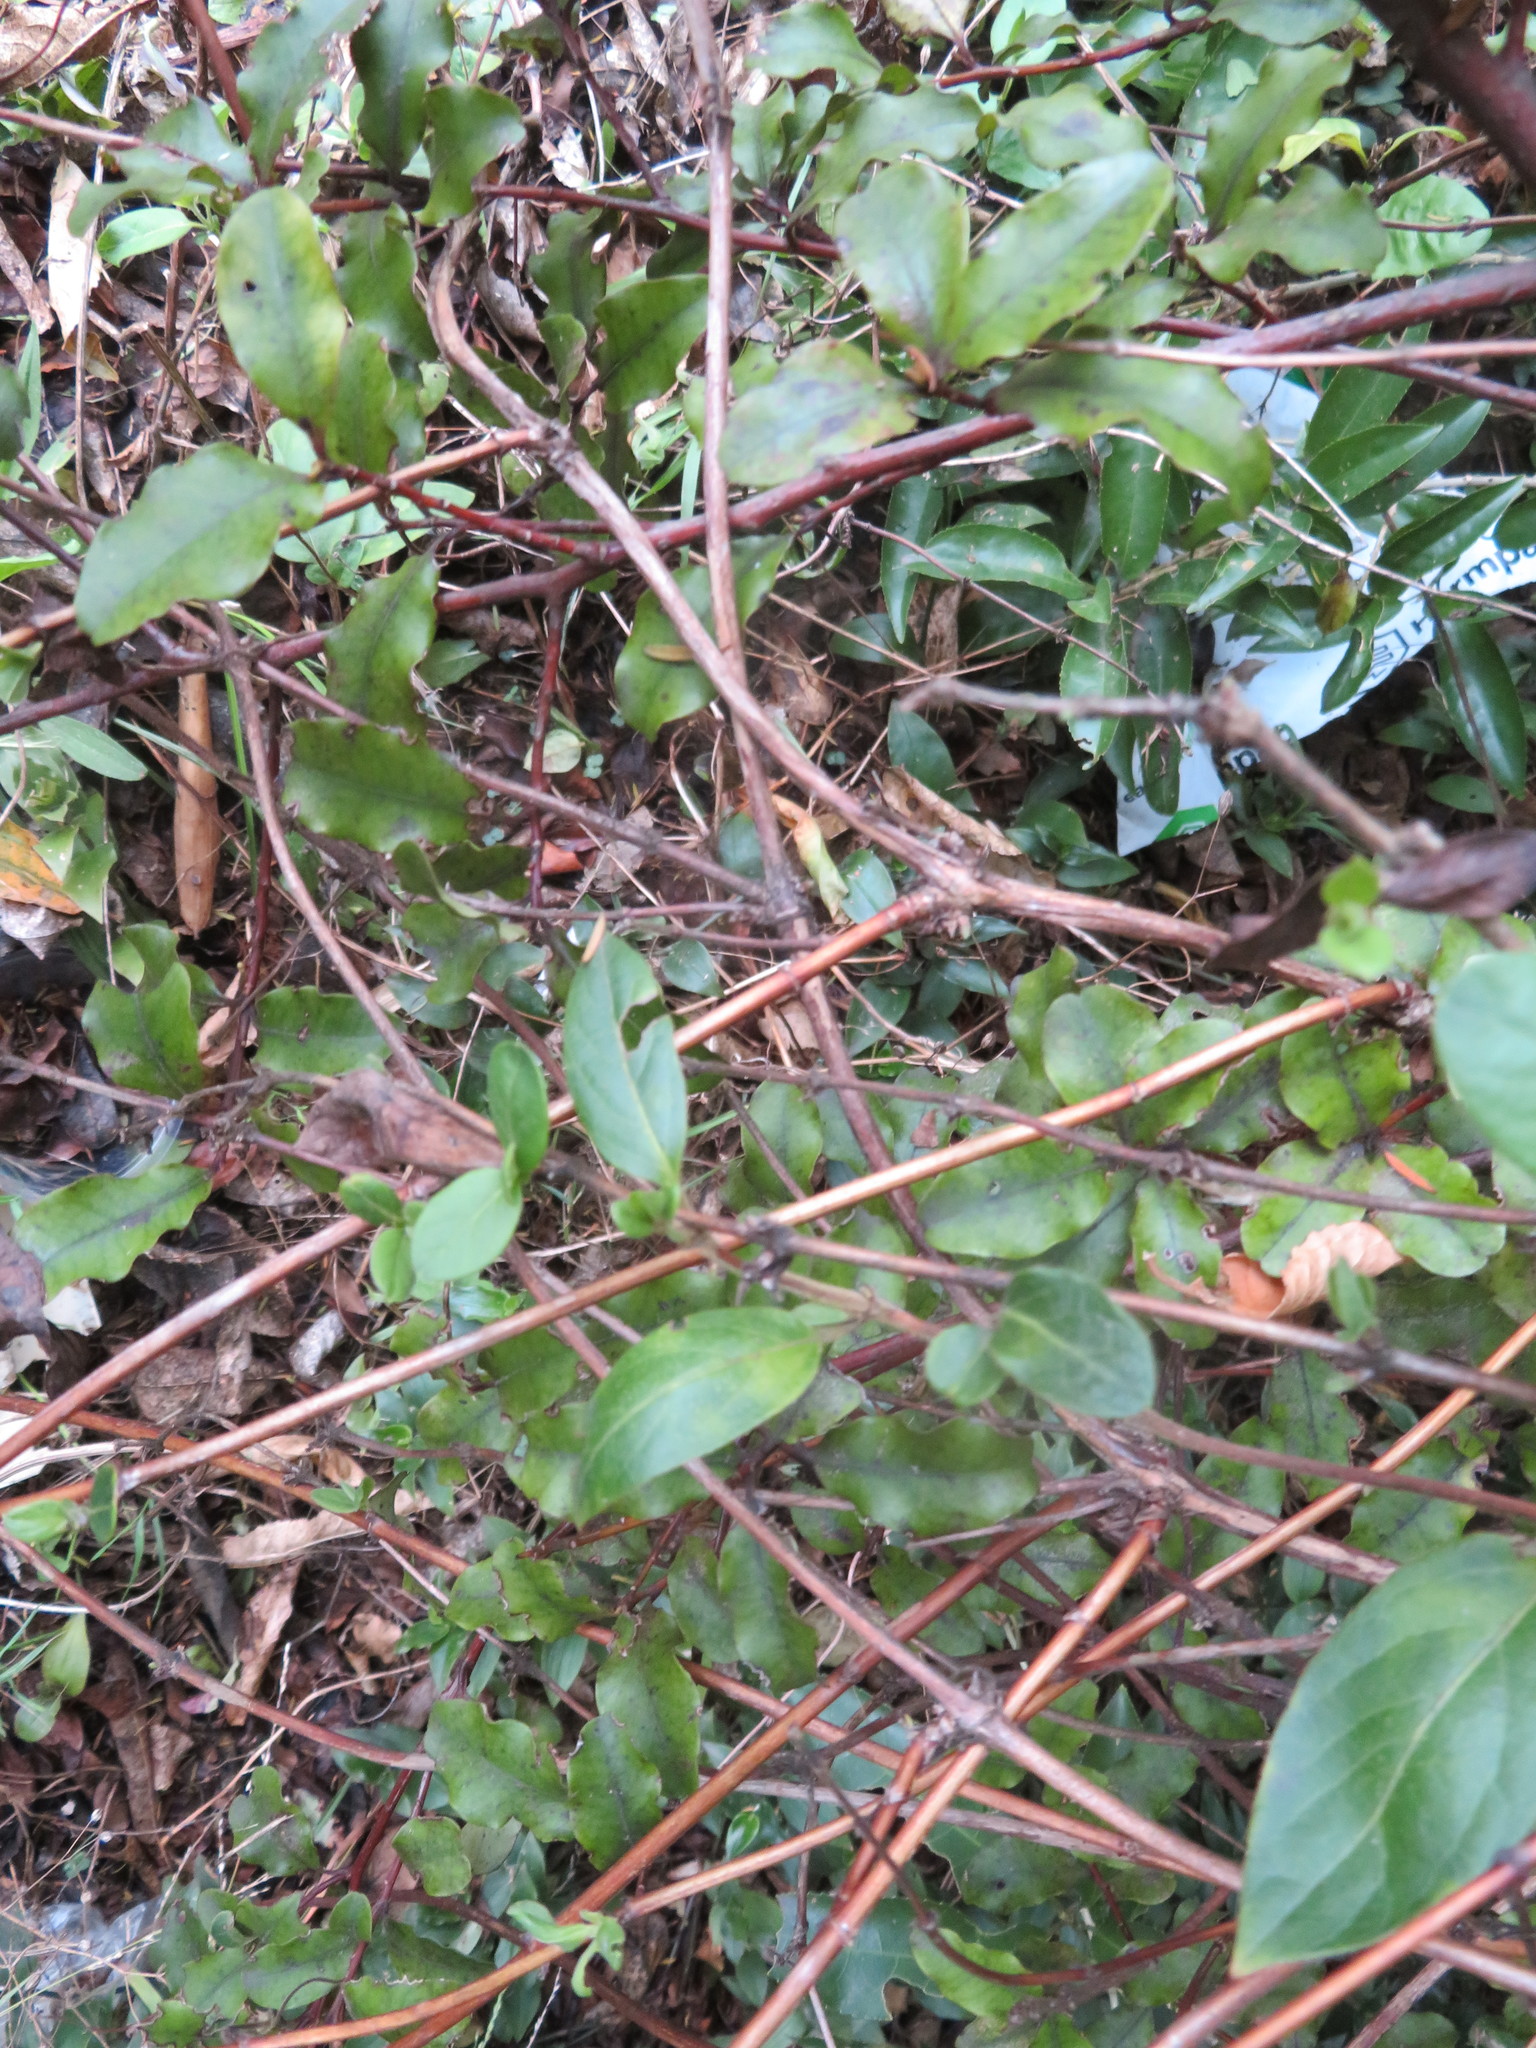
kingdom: Plantae
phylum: Tracheophyta
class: Magnoliopsida
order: Dipsacales
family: Caprifoliaceae
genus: Lonicera
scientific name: Lonicera japonica
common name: Japanese honeysuckle
